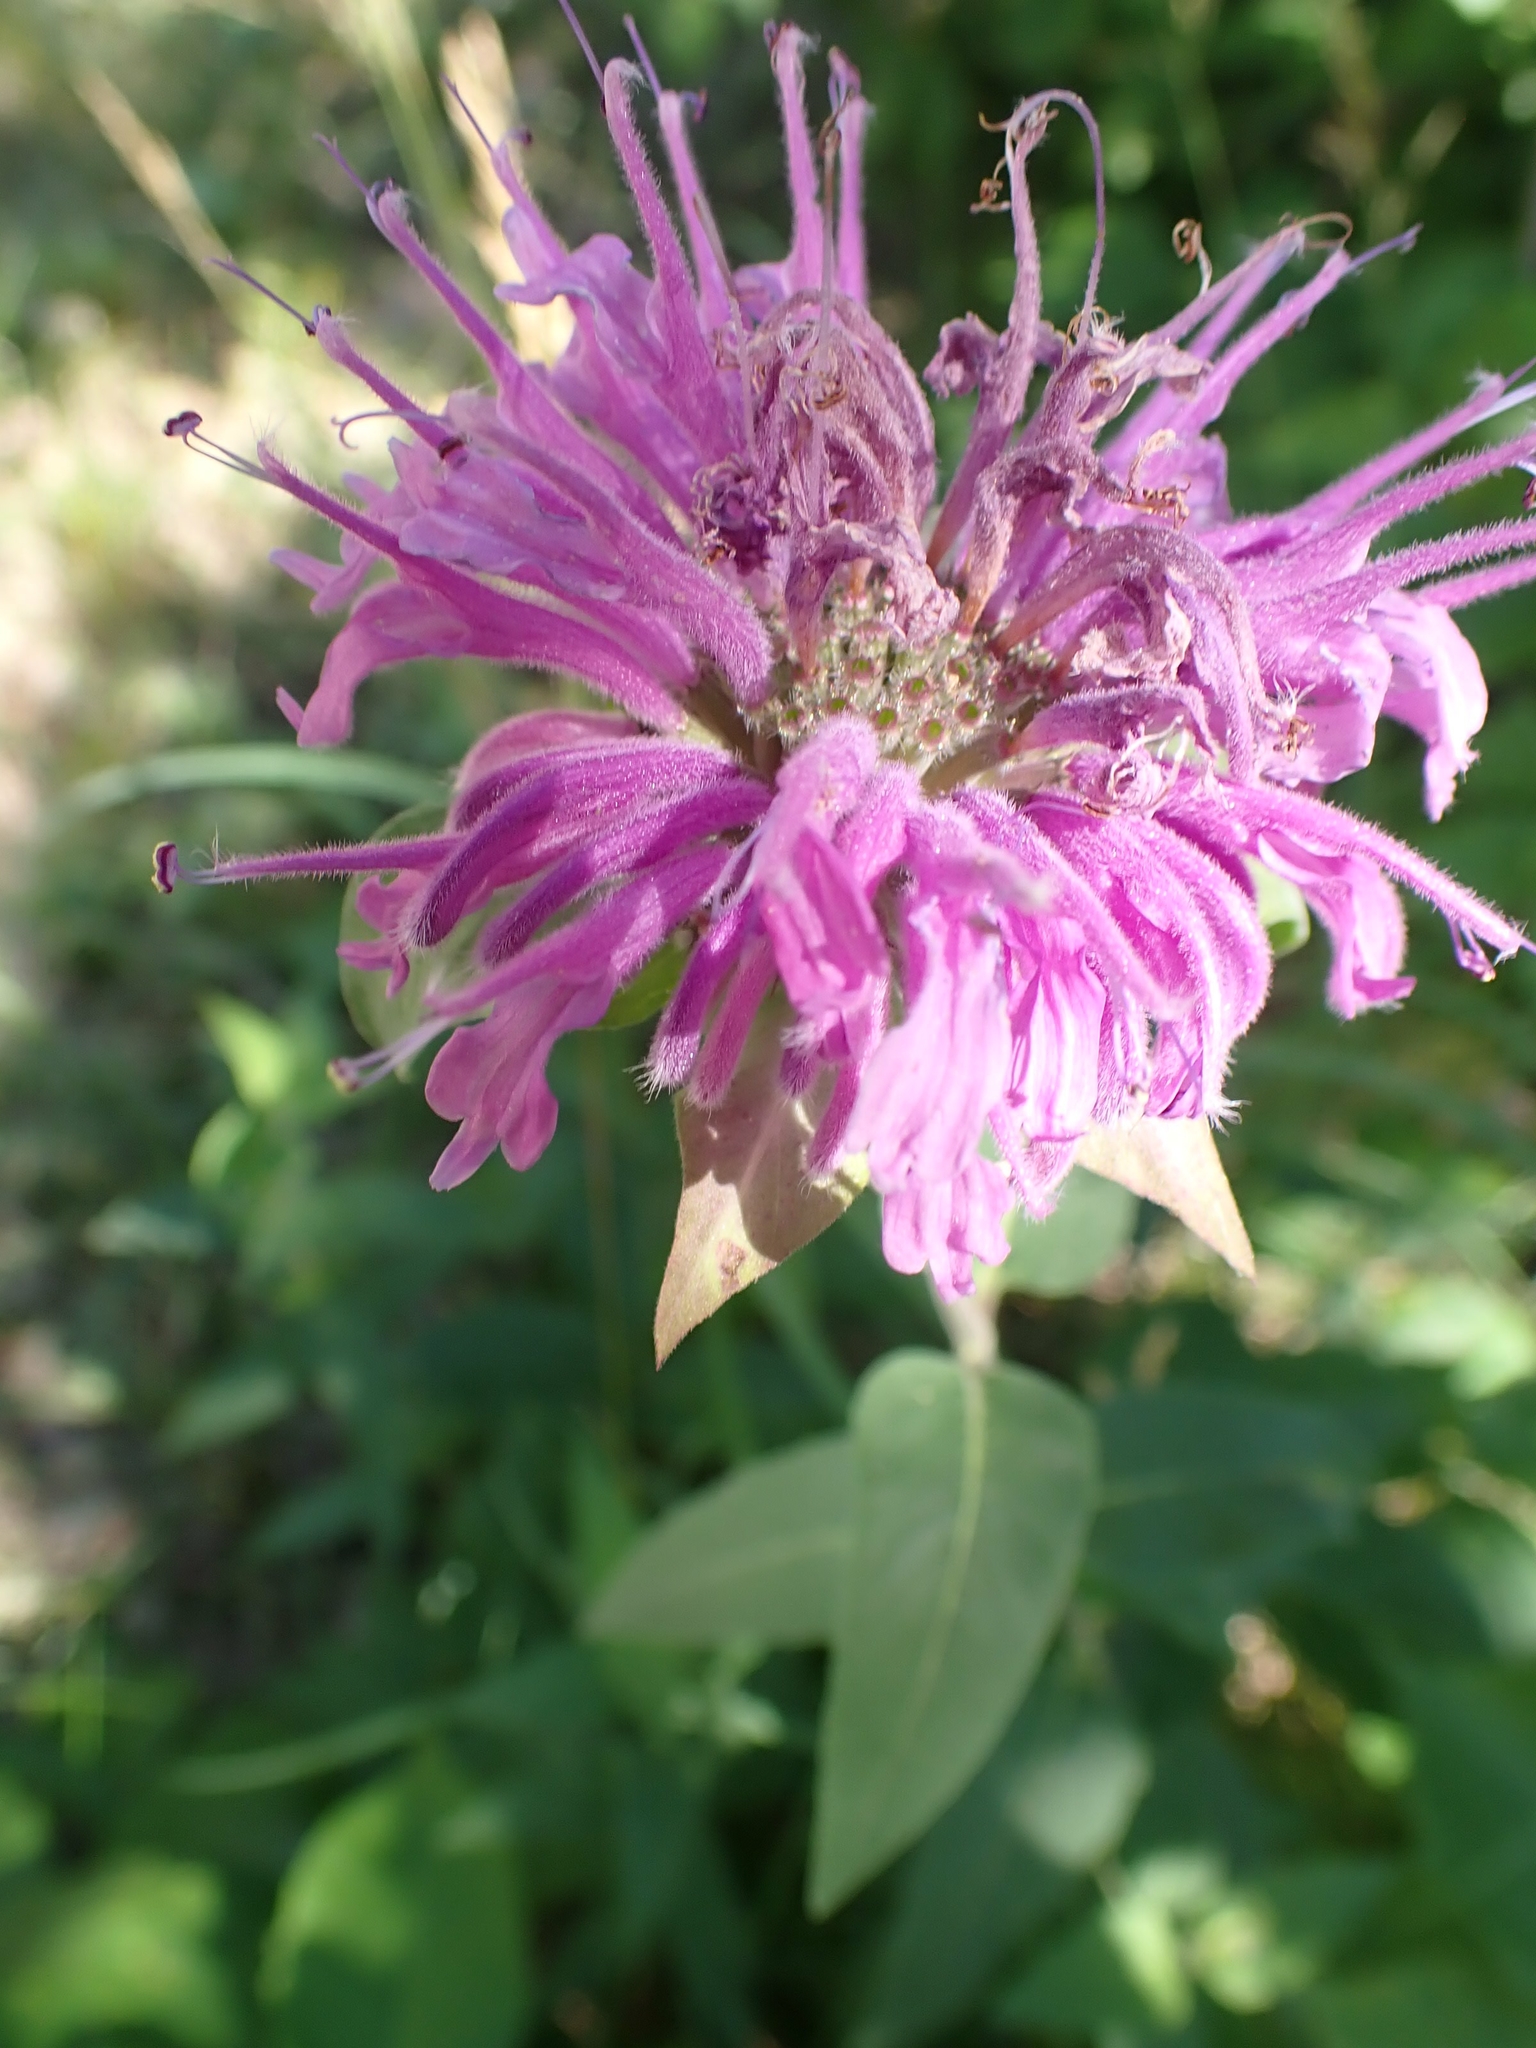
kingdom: Plantae
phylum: Tracheophyta
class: Magnoliopsida
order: Lamiales
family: Lamiaceae
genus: Monarda
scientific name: Monarda fistulosa
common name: Purple beebalm
